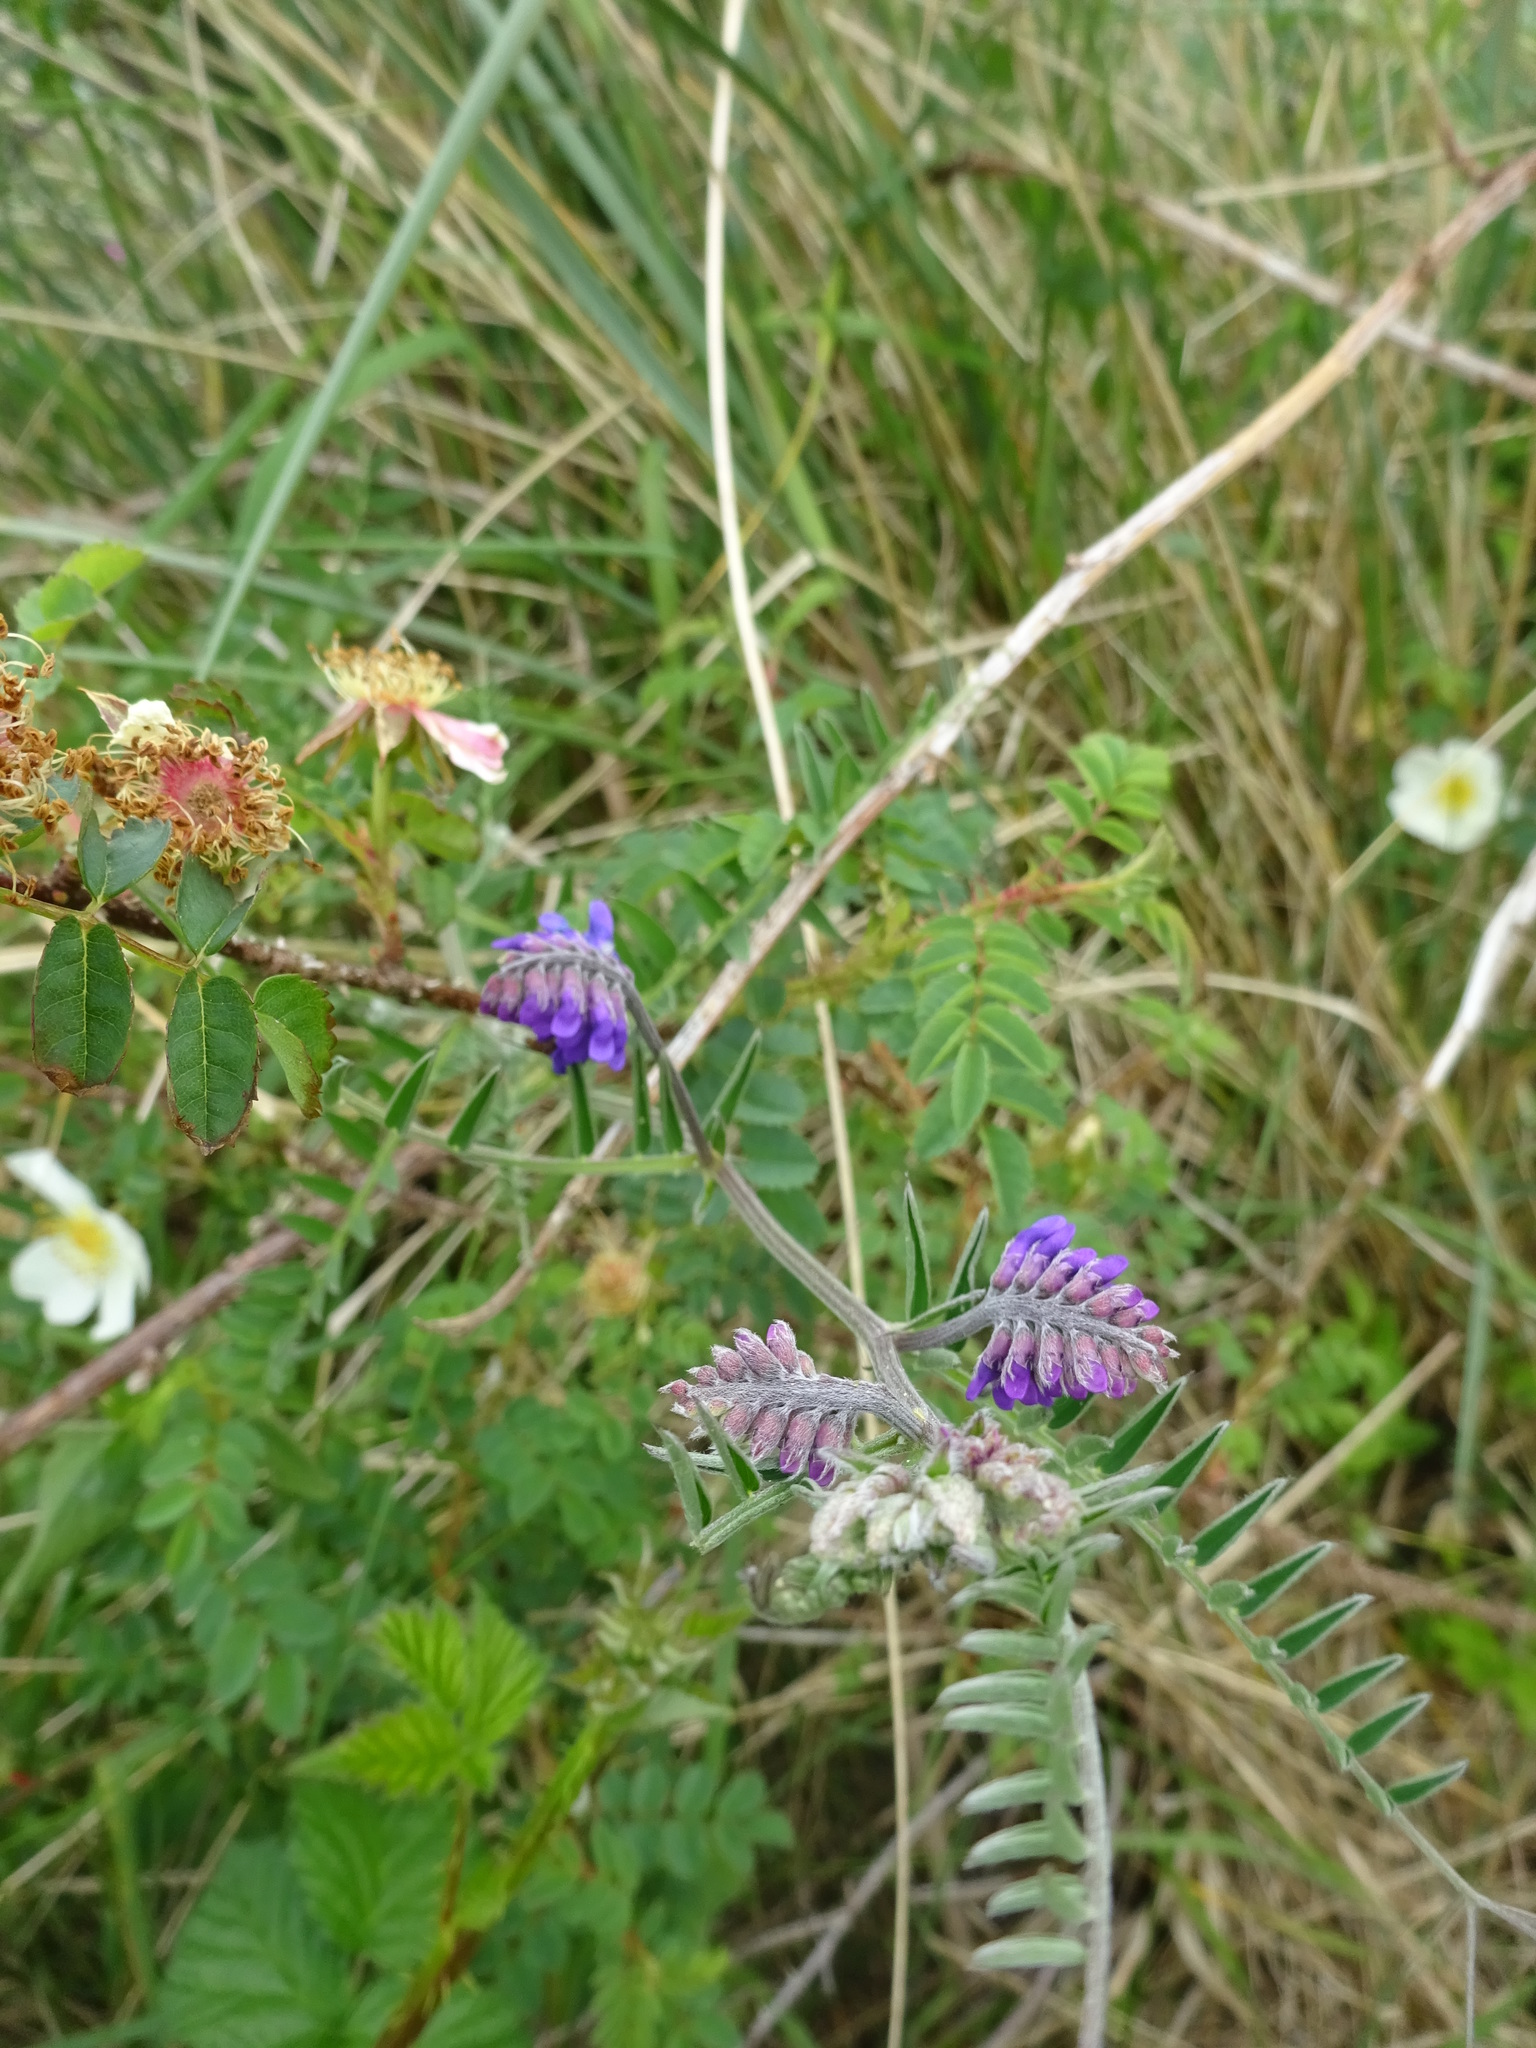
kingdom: Plantae
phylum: Tracheophyta
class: Magnoliopsida
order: Fabales
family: Fabaceae
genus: Vicia
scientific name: Vicia cracca
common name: Bird vetch
